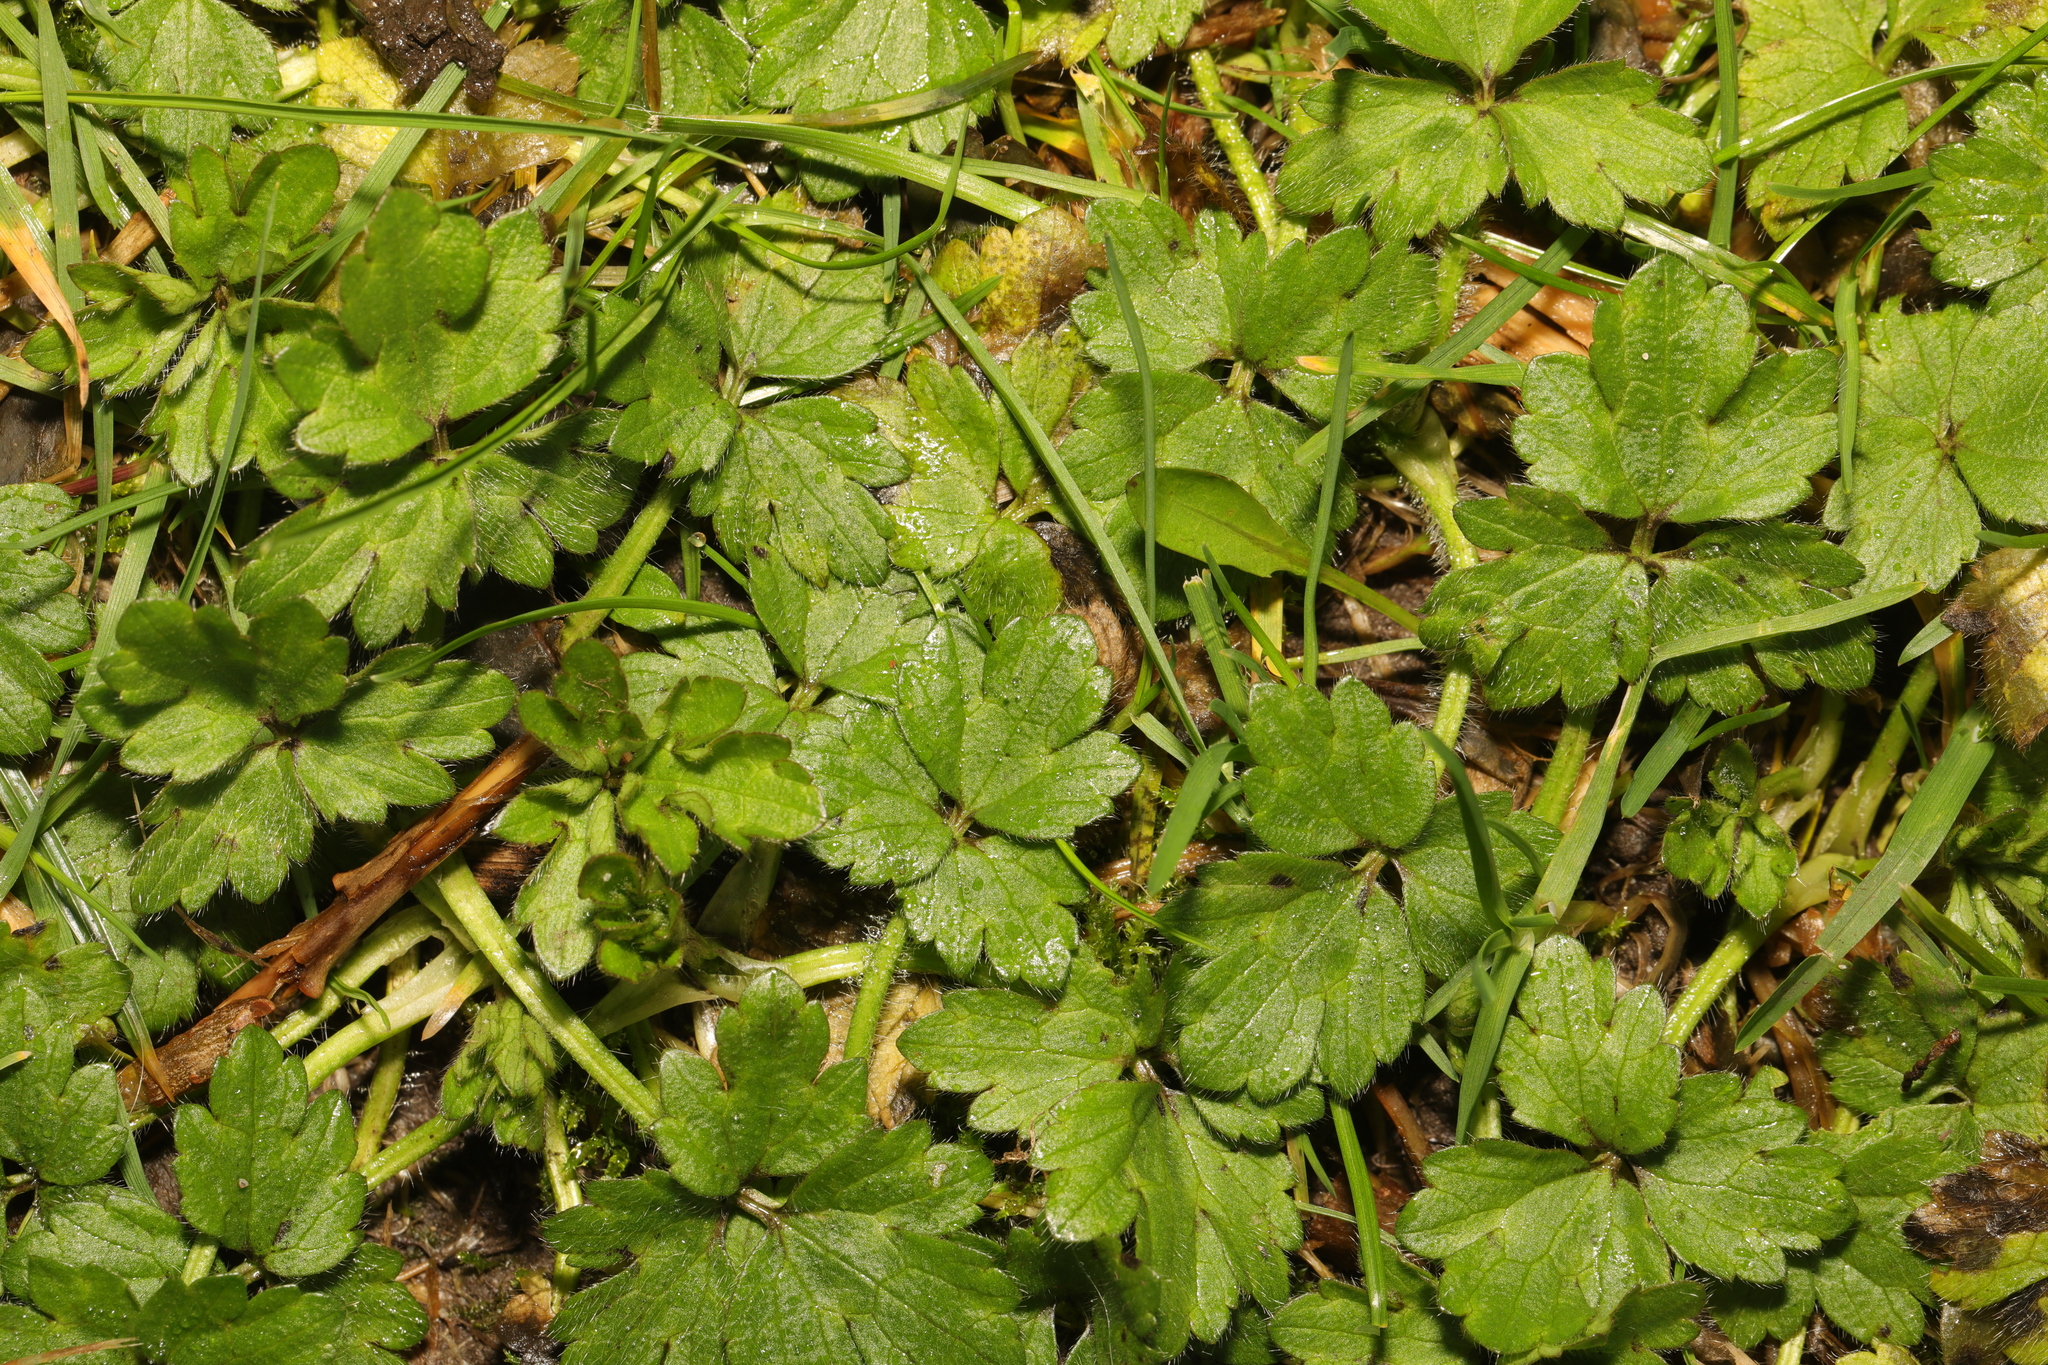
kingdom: Plantae
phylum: Tracheophyta
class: Magnoliopsida
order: Ranunculales
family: Ranunculaceae
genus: Ranunculus
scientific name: Ranunculus repens
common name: Creeping buttercup
